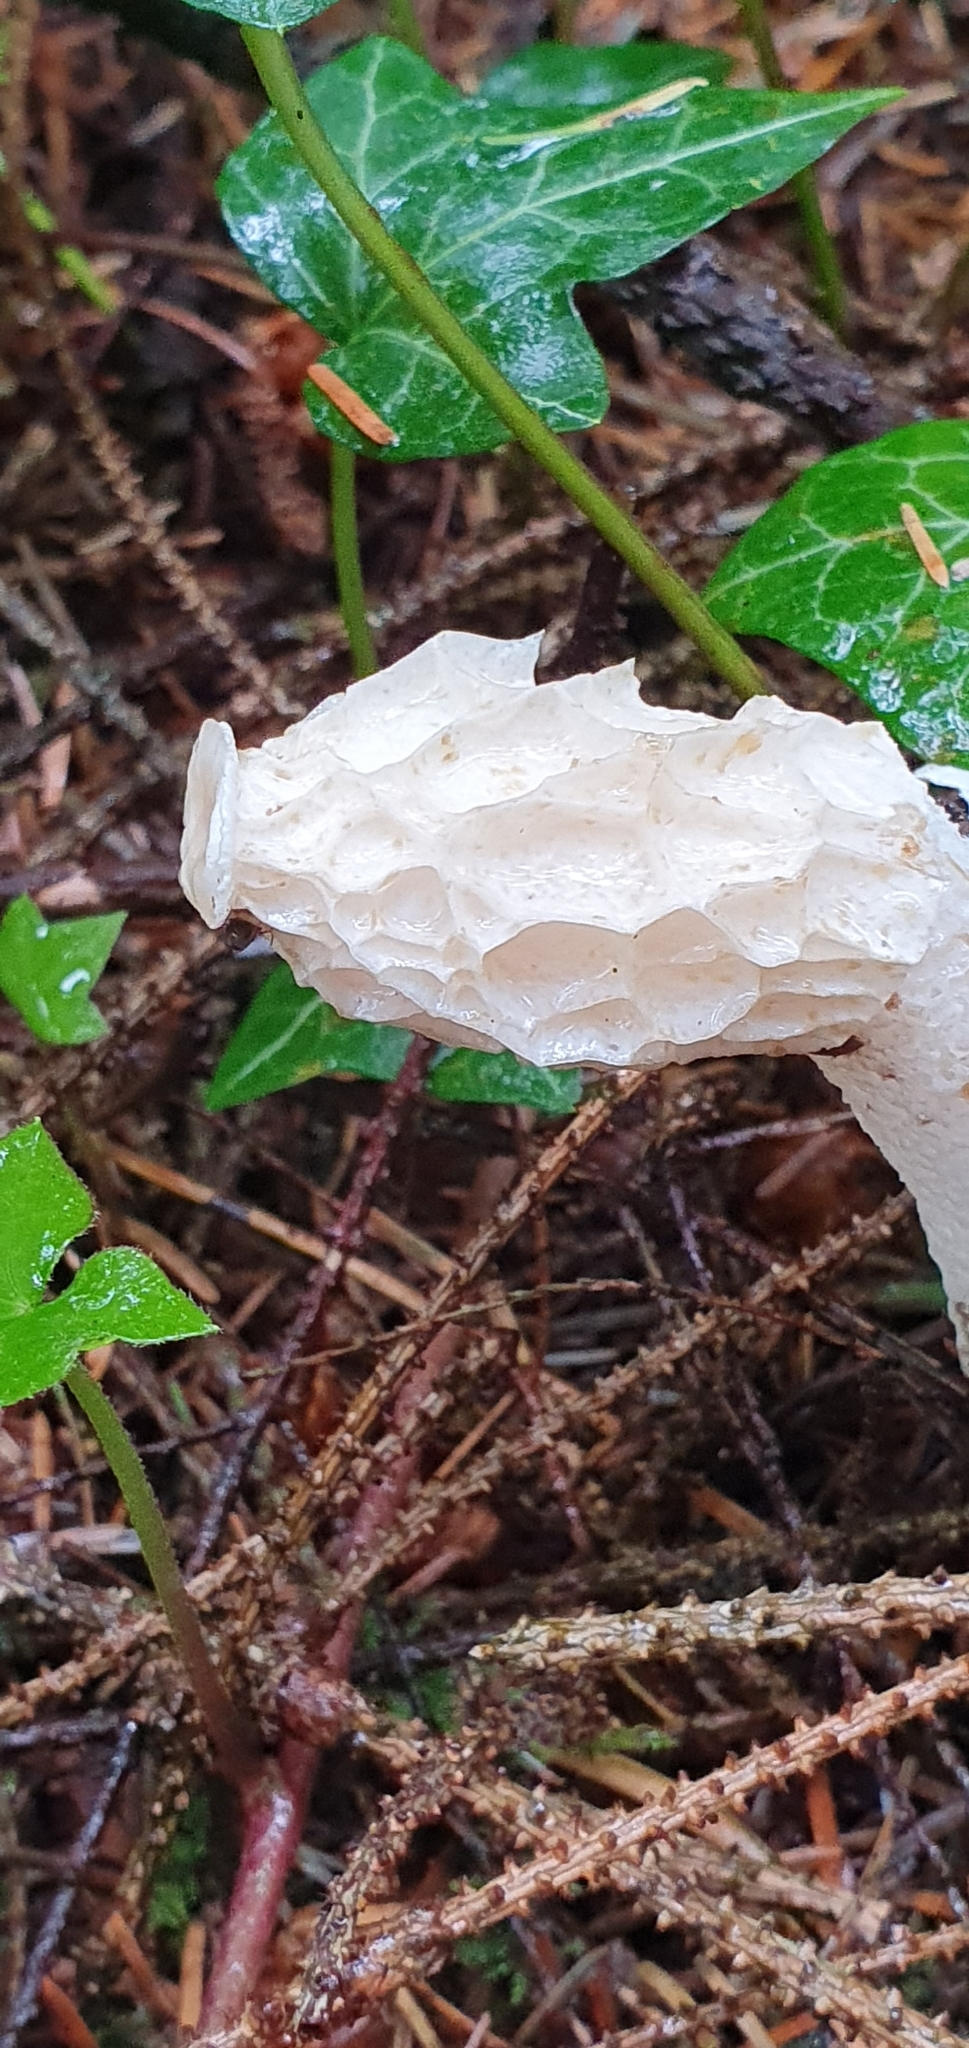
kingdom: Fungi
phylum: Basidiomycota
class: Agaricomycetes
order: Phallales
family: Phallaceae
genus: Phallus
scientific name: Phallus impudicus
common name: Common stinkhorn
